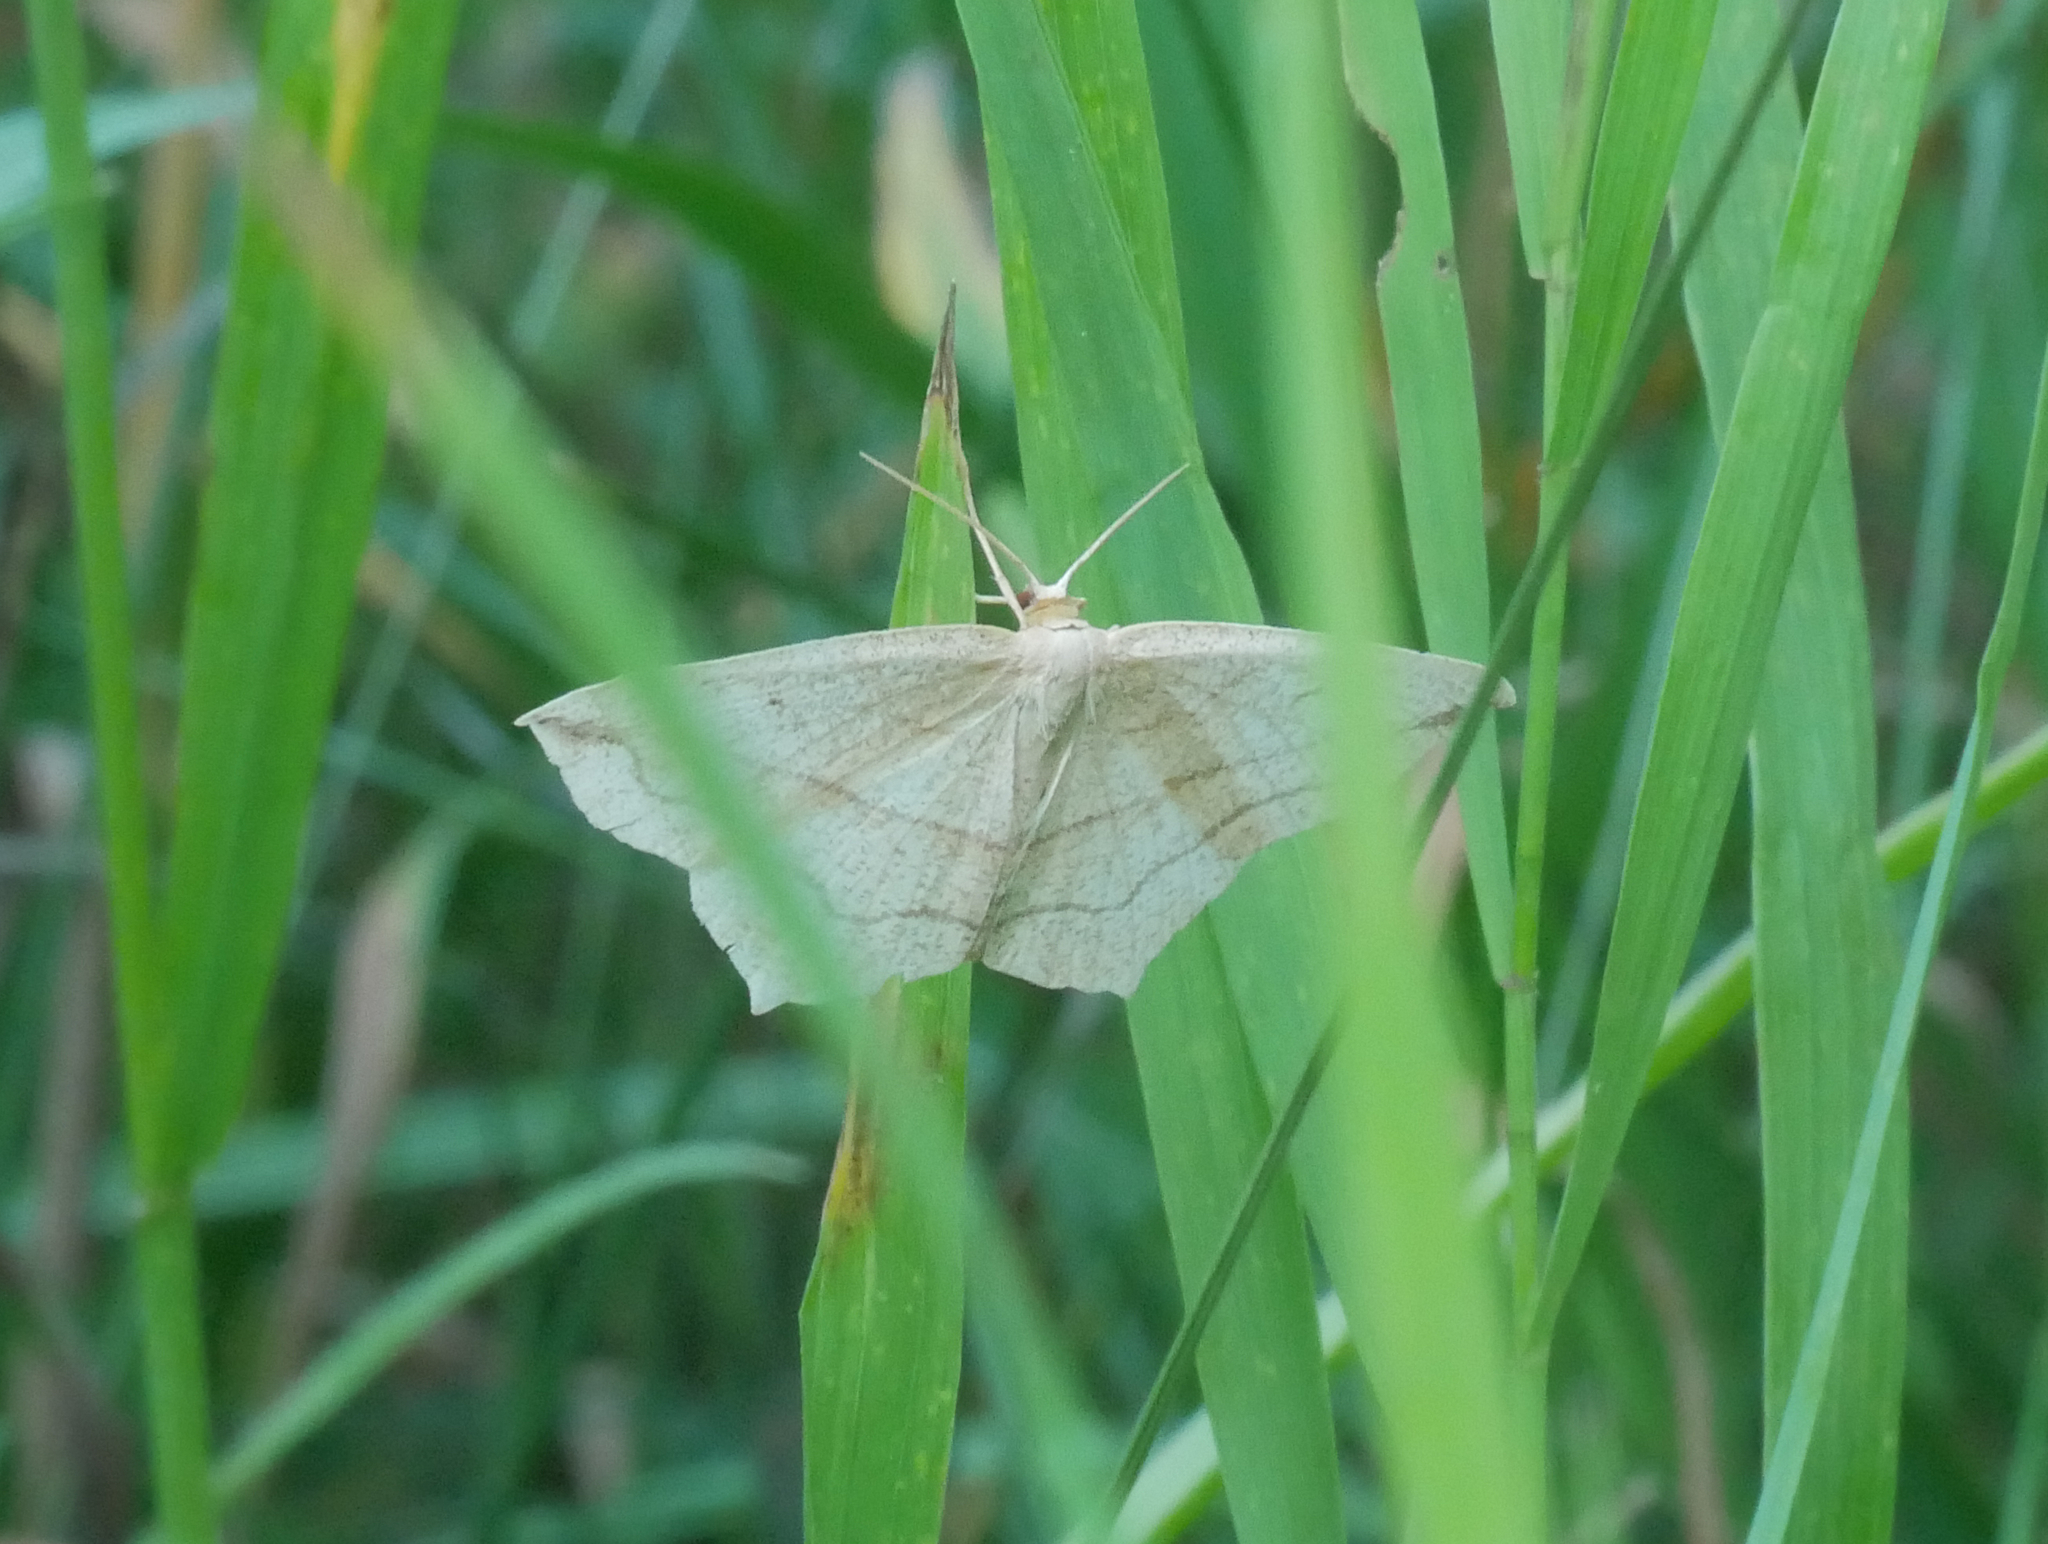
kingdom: Animalia
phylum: Arthropoda
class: Insecta
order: Lepidoptera
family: Geometridae
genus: Timandra
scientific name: Timandra comae
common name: Blood-vein
